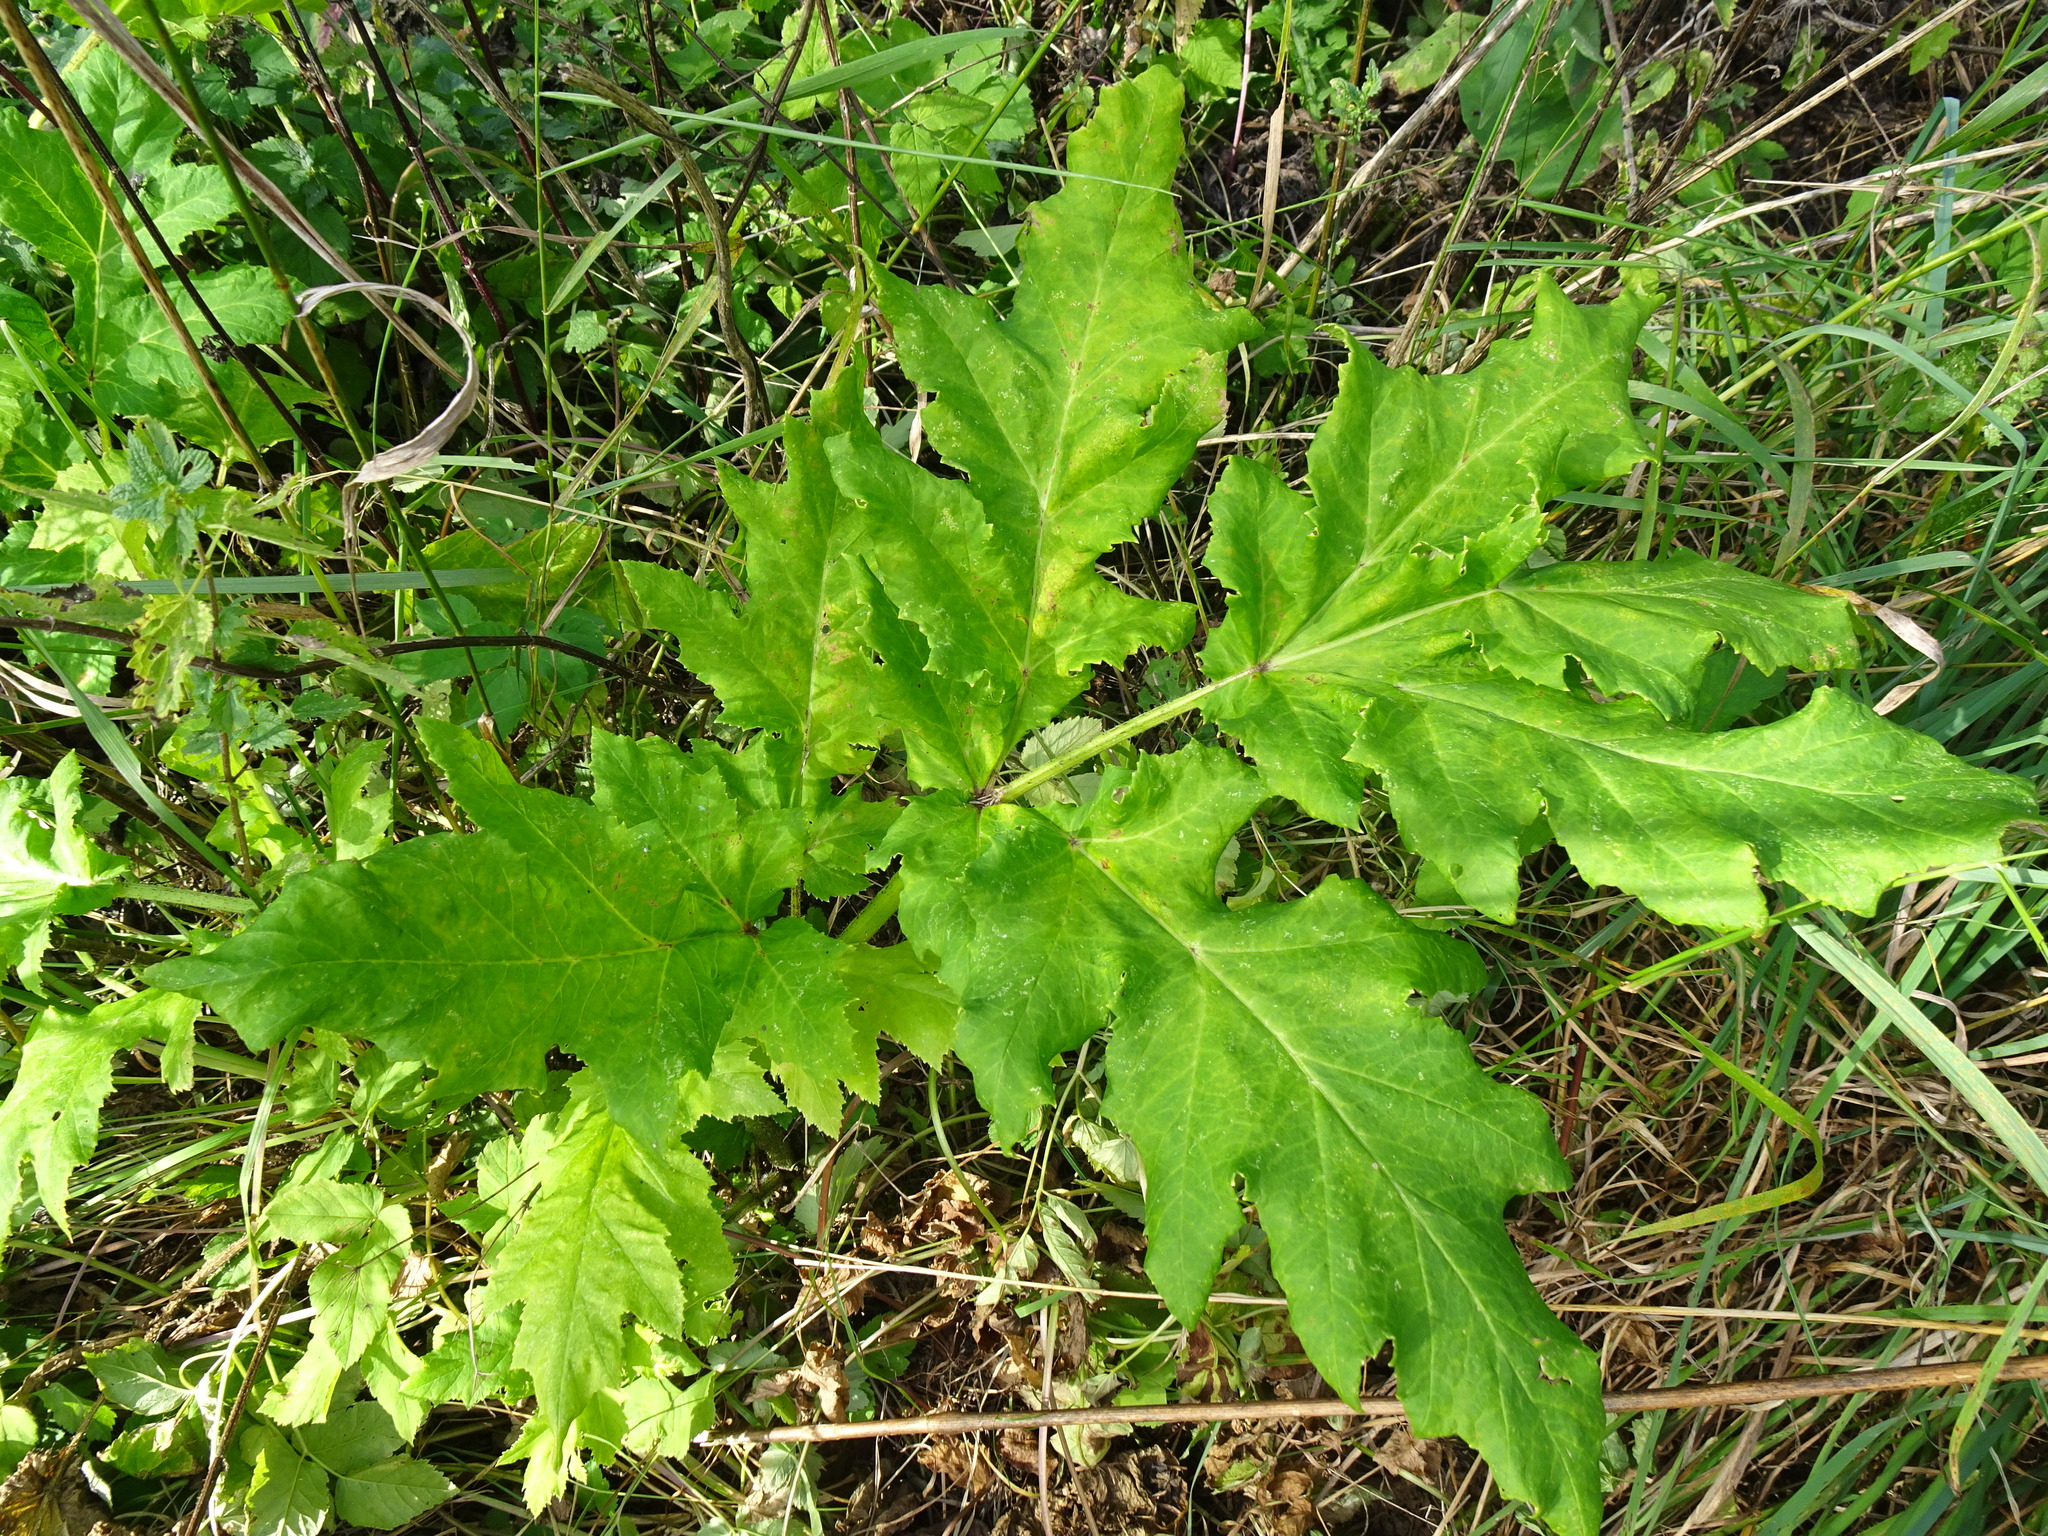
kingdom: Plantae
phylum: Tracheophyta
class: Magnoliopsida
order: Apiales
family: Apiaceae
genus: Heracleum
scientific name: Heracleum mantegazzianum
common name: Giant hogweed
